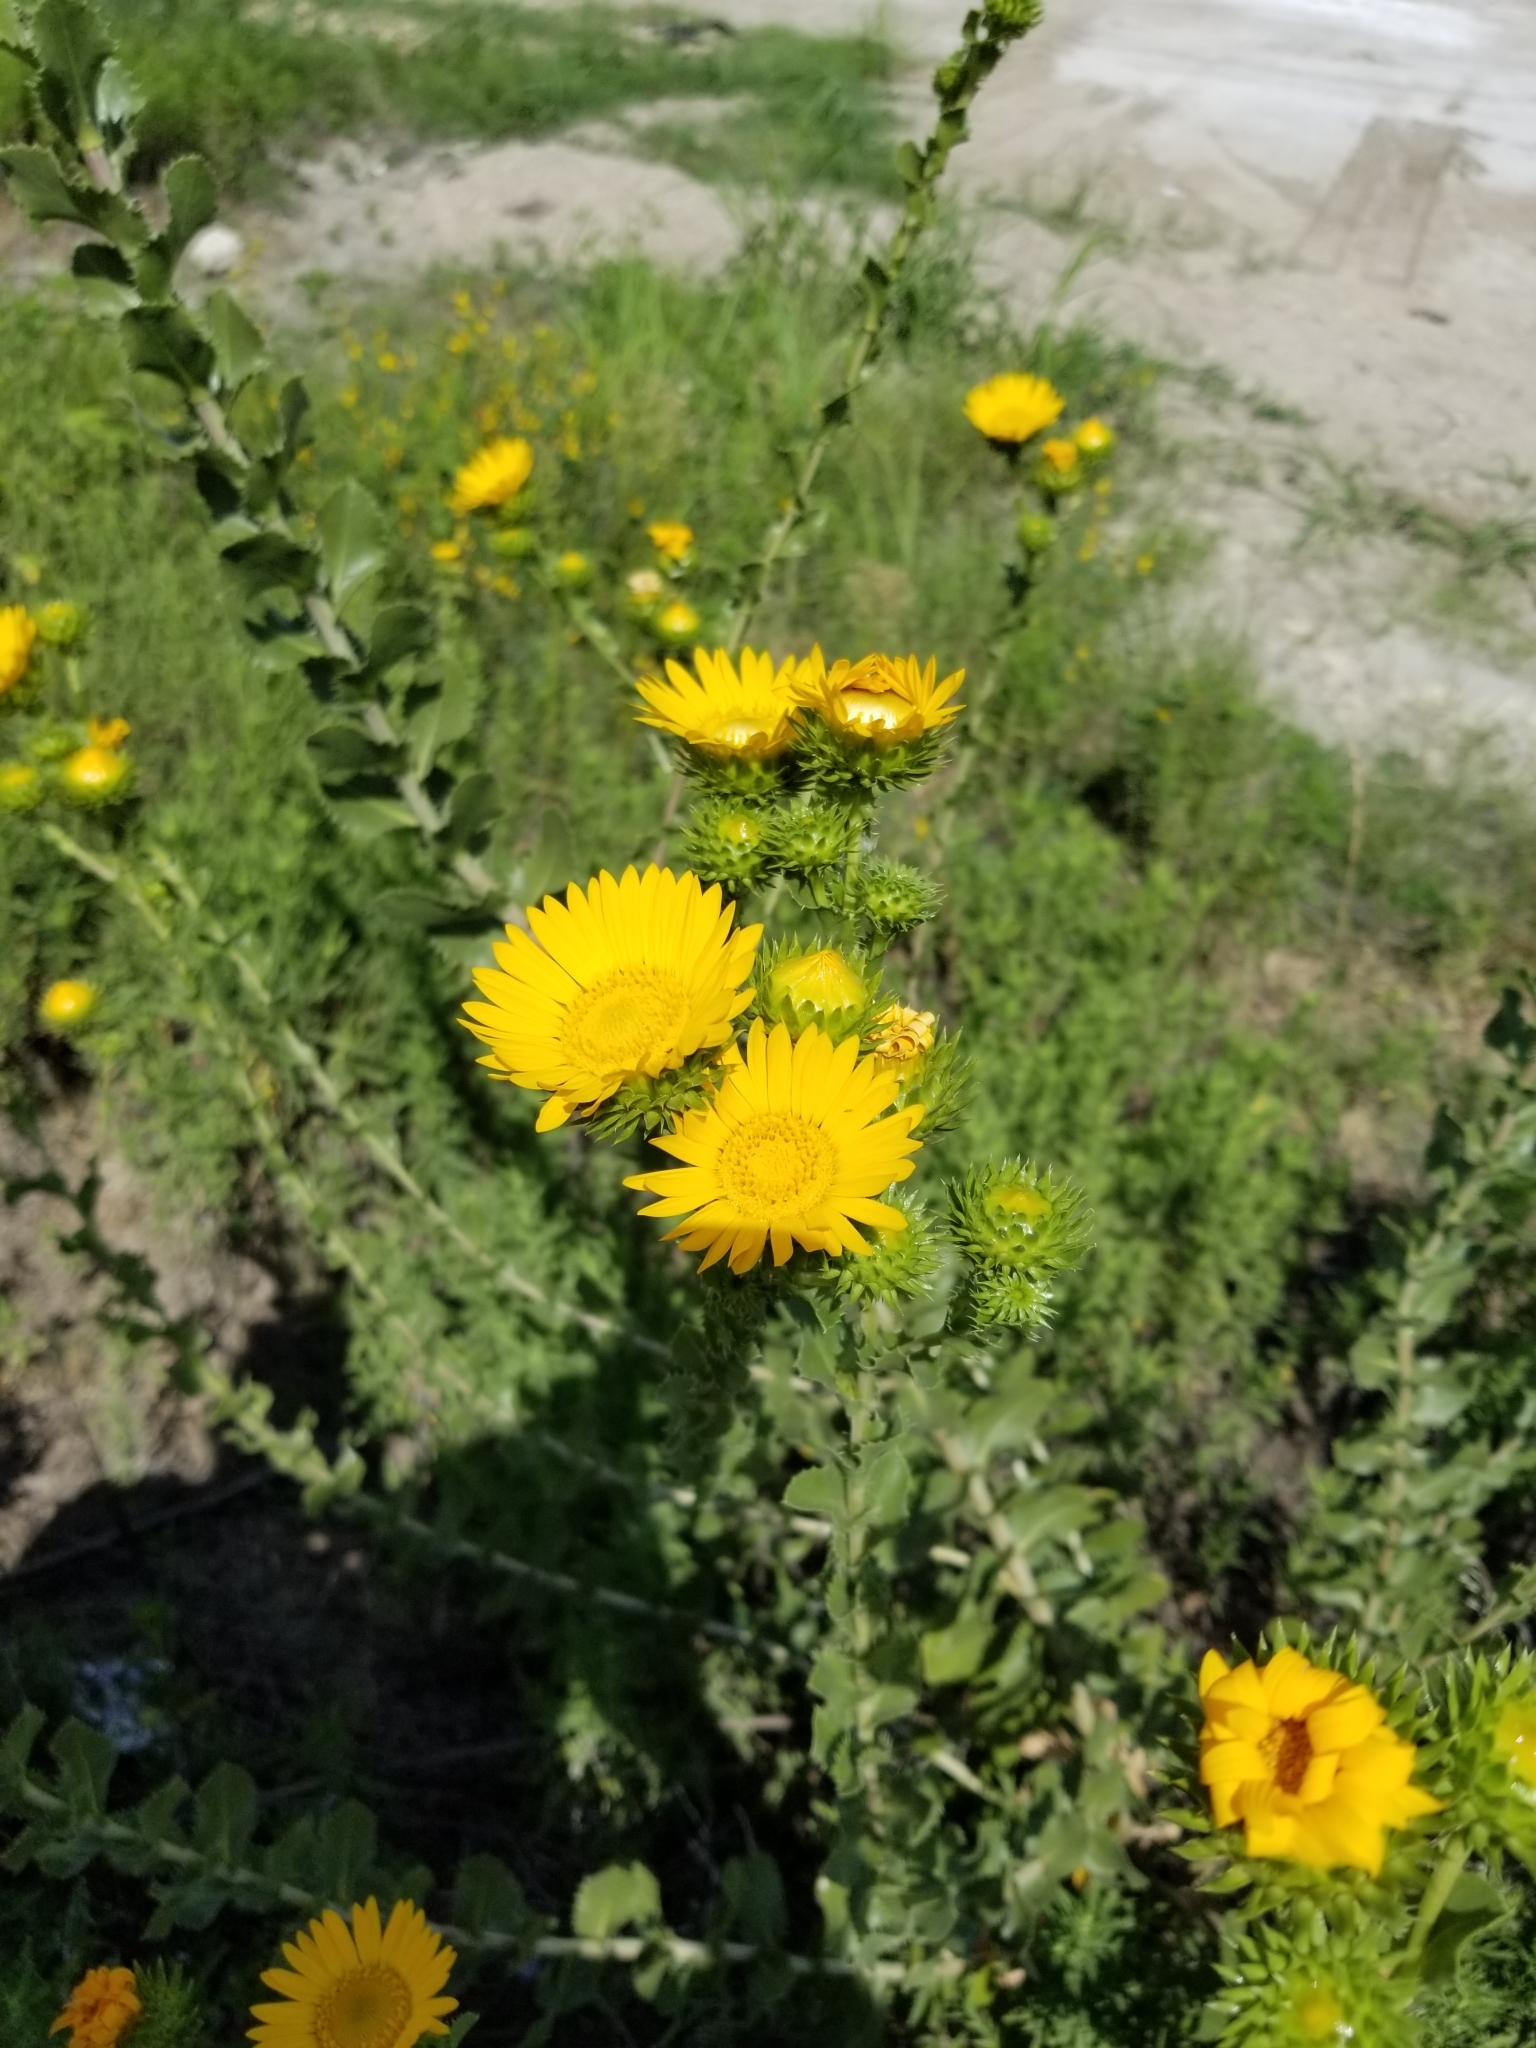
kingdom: Plantae
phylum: Tracheophyta
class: Magnoliopsida
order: Asterales
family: Asteraceae
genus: Grindelia
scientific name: Grindelia ciliata
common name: Goldenweed
